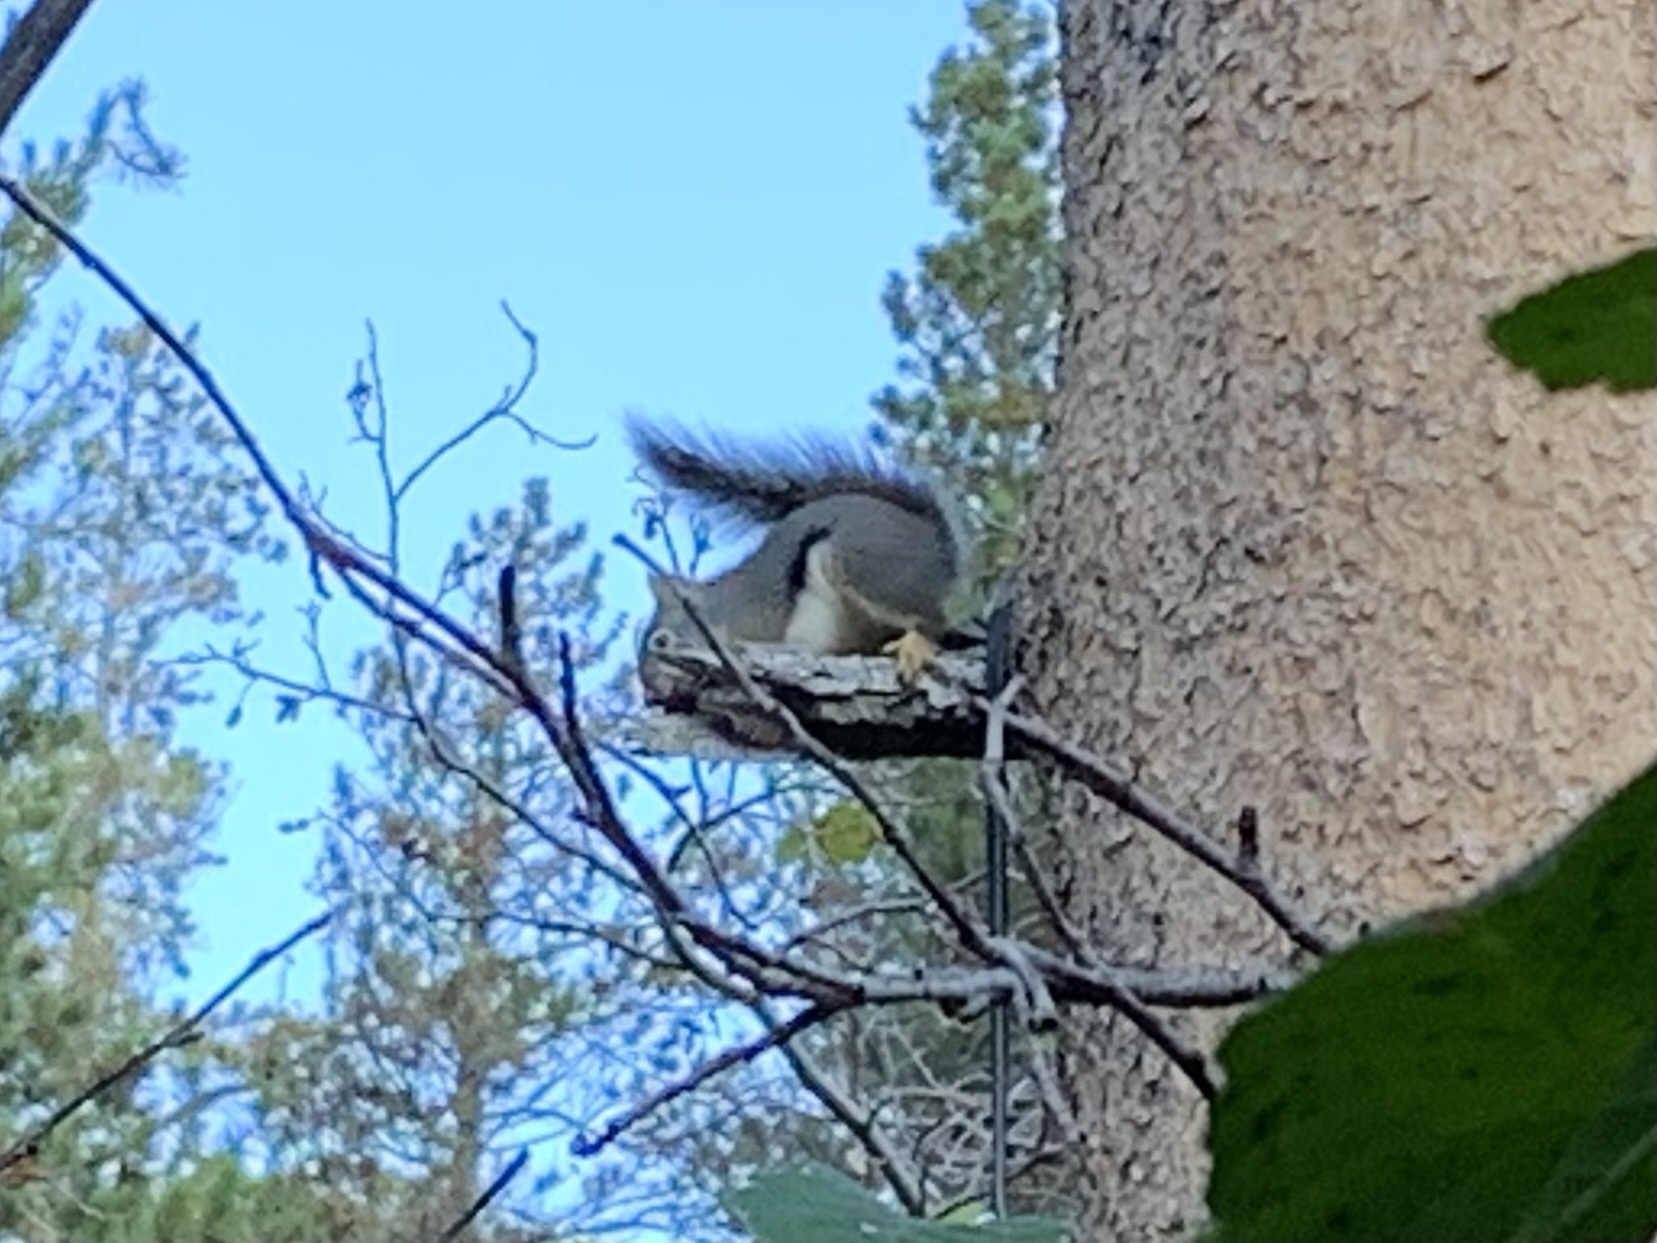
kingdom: Animalia
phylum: Chordata
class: Mammalia
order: Rodentia
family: Sciuridae
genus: Tamiasciurus
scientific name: Tamiasciurus douglasii
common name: Douglas's squirrel
